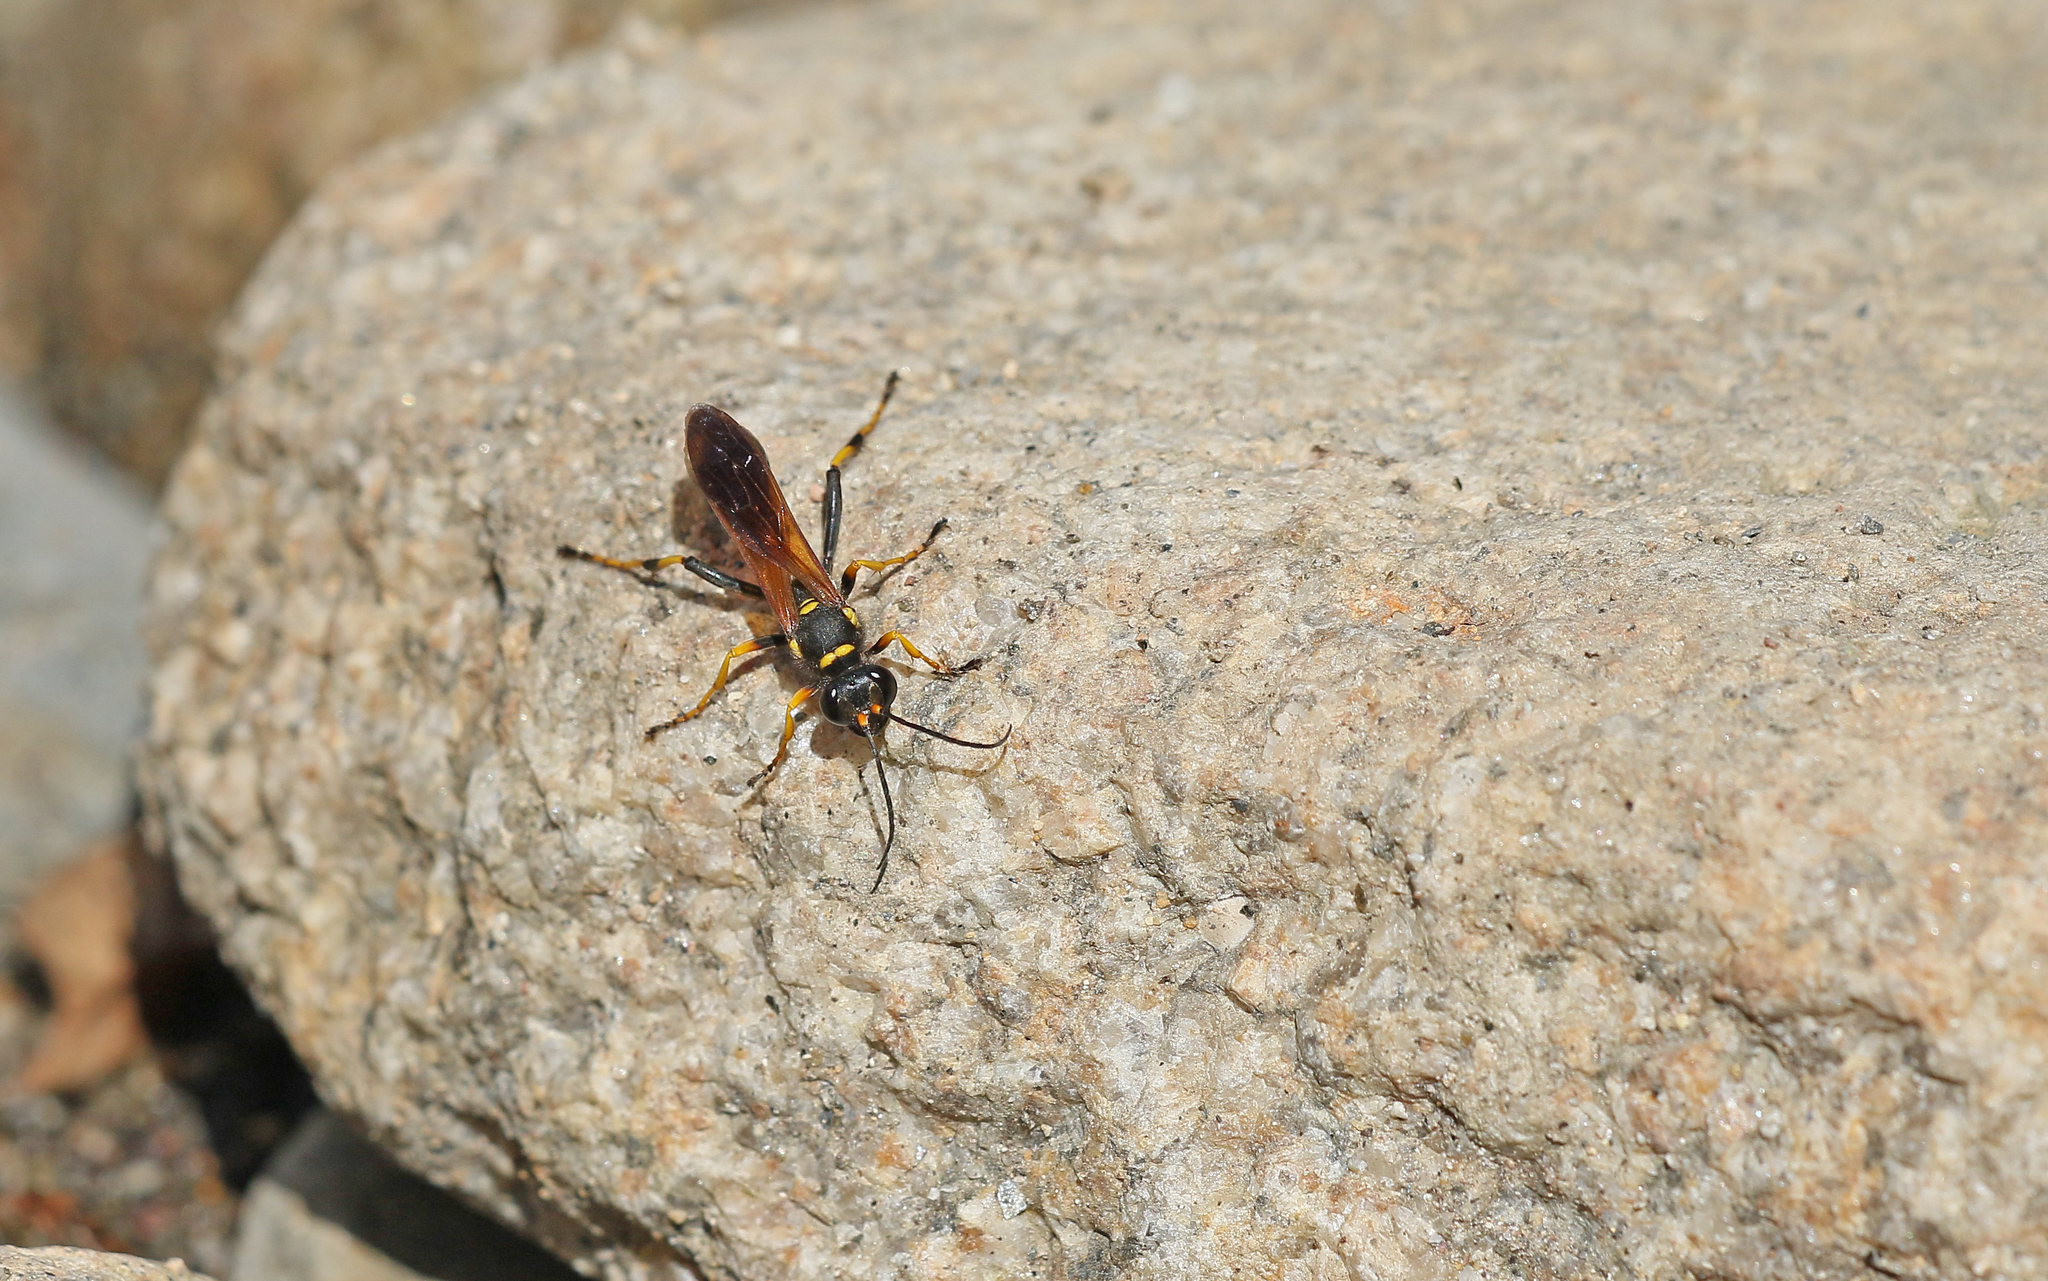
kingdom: Animalia
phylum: Arthropoda
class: Insecta
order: Hymenoptera
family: Sphecidae
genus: Sceliphron
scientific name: Sceliphron caementarium
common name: Mud dauber
